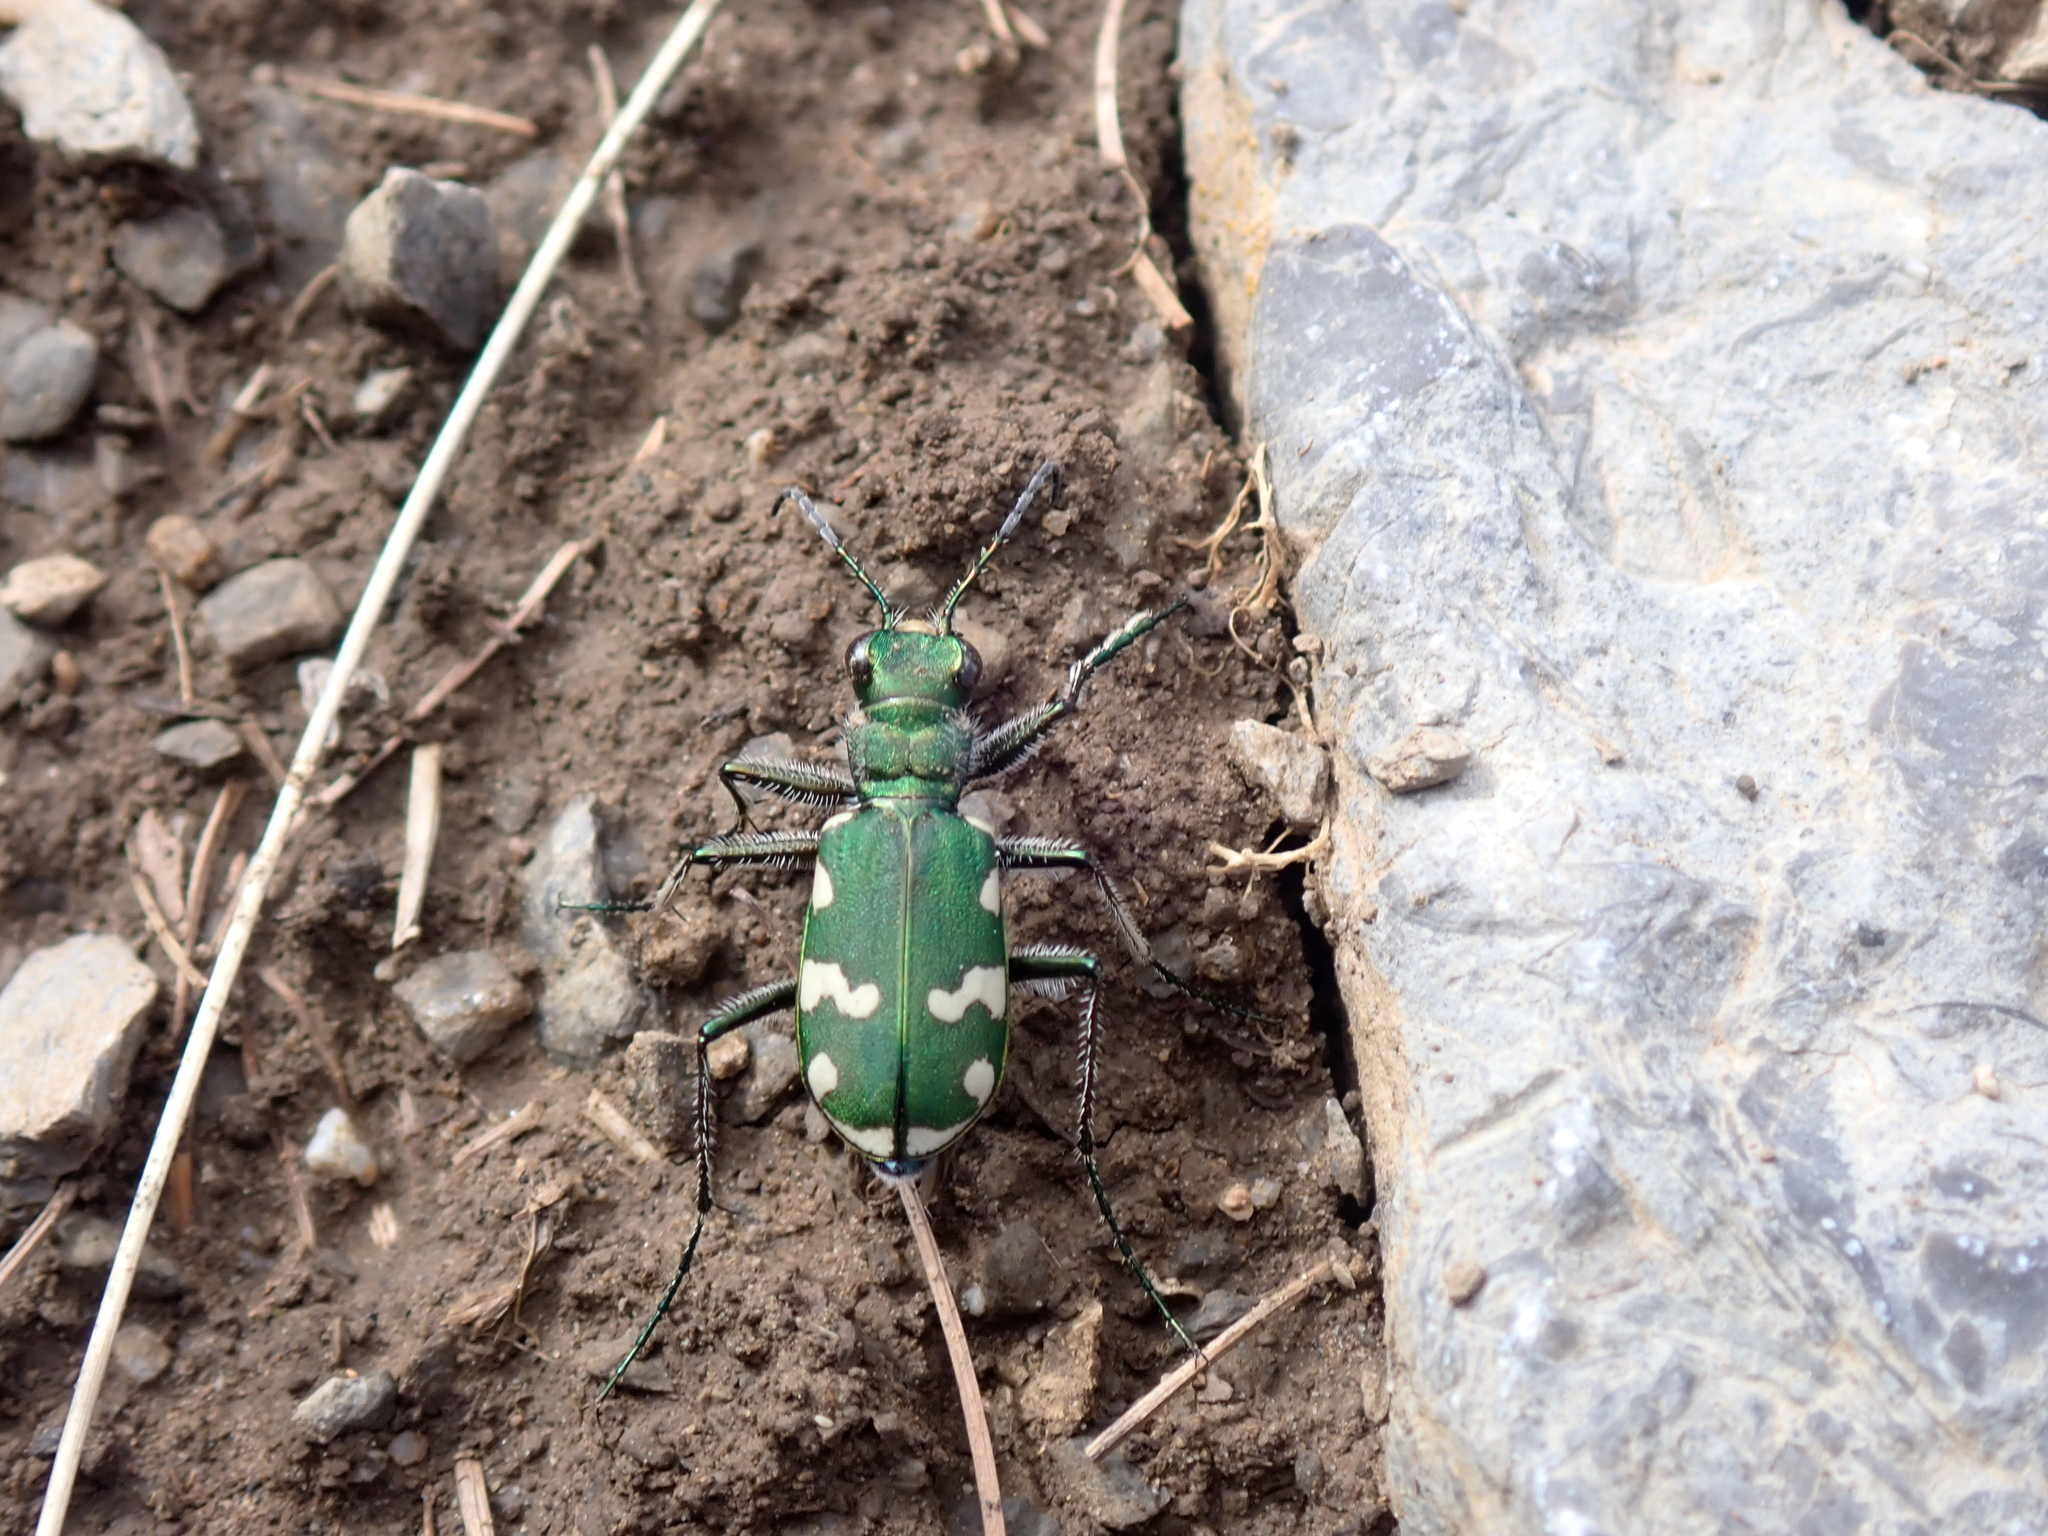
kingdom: Animalia
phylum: Arthropoda
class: Insecta
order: Coleoptera
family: Carabidae
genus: Cicindela
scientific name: Cicindela gallica
